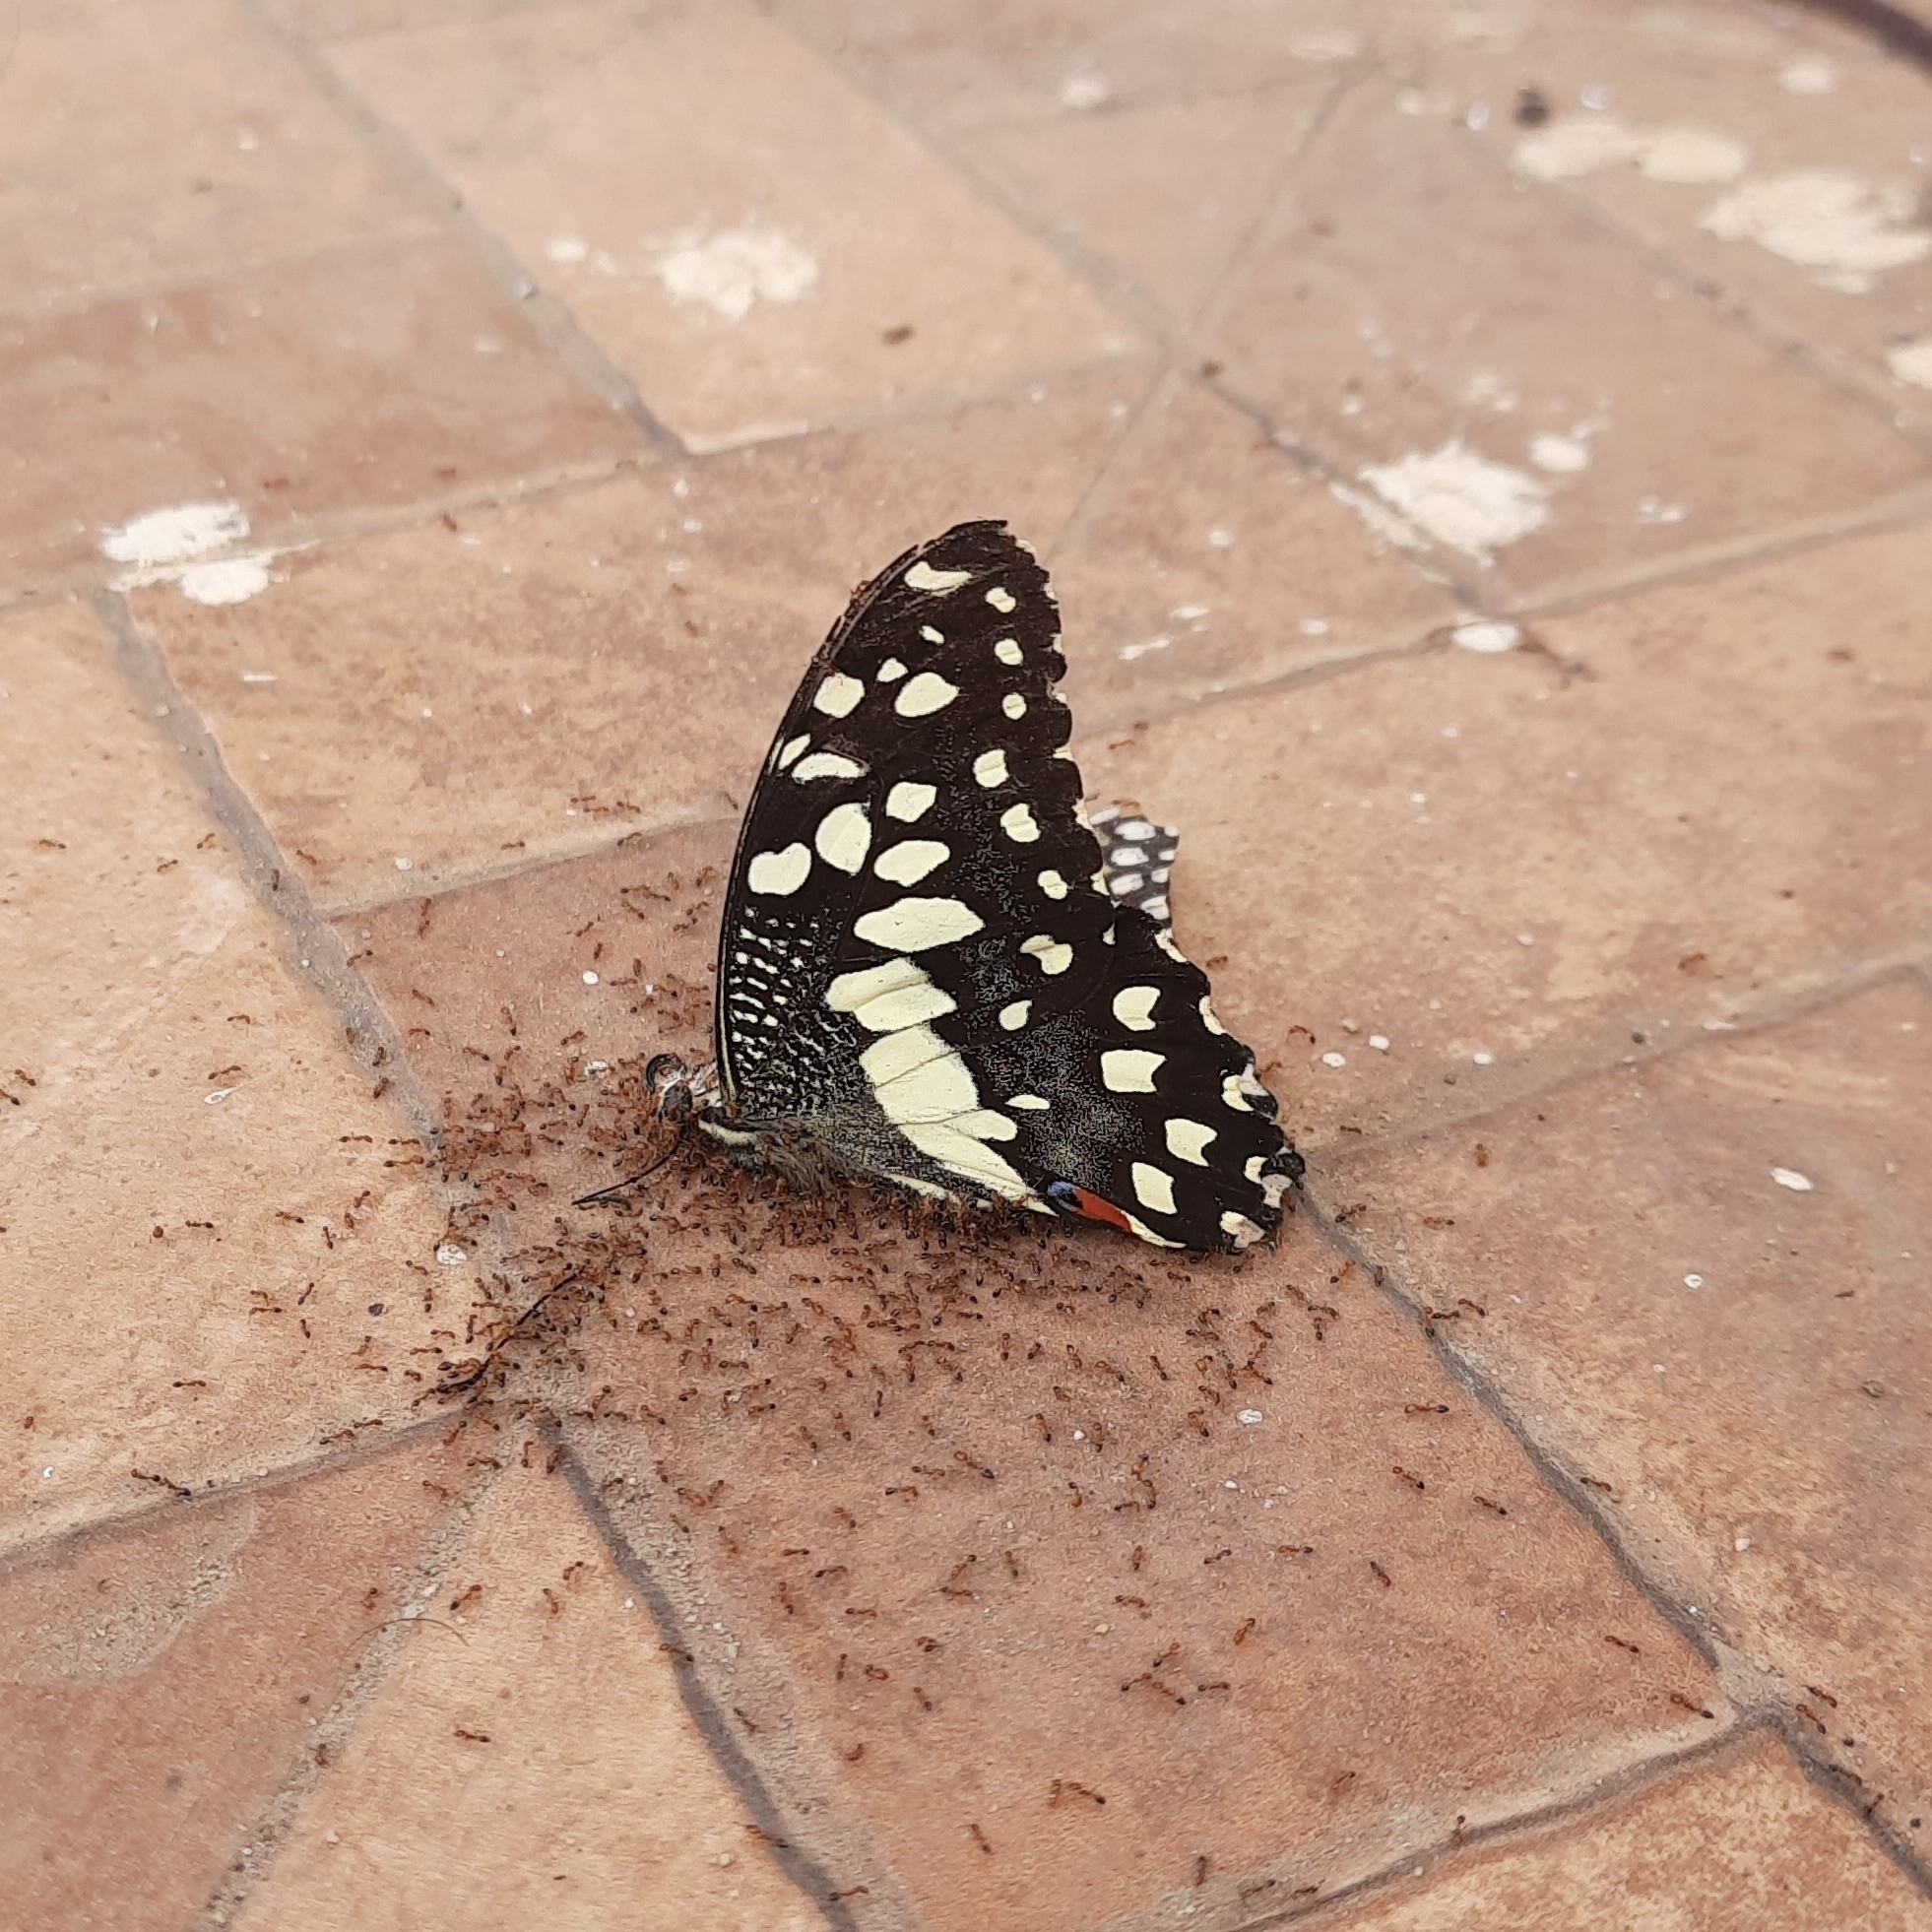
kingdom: Animalia
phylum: Arthropoda
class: Insecta
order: Lepidoptera
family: Papilionidae
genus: Papilio
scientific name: Papilio demoleus
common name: Lime butterfly
